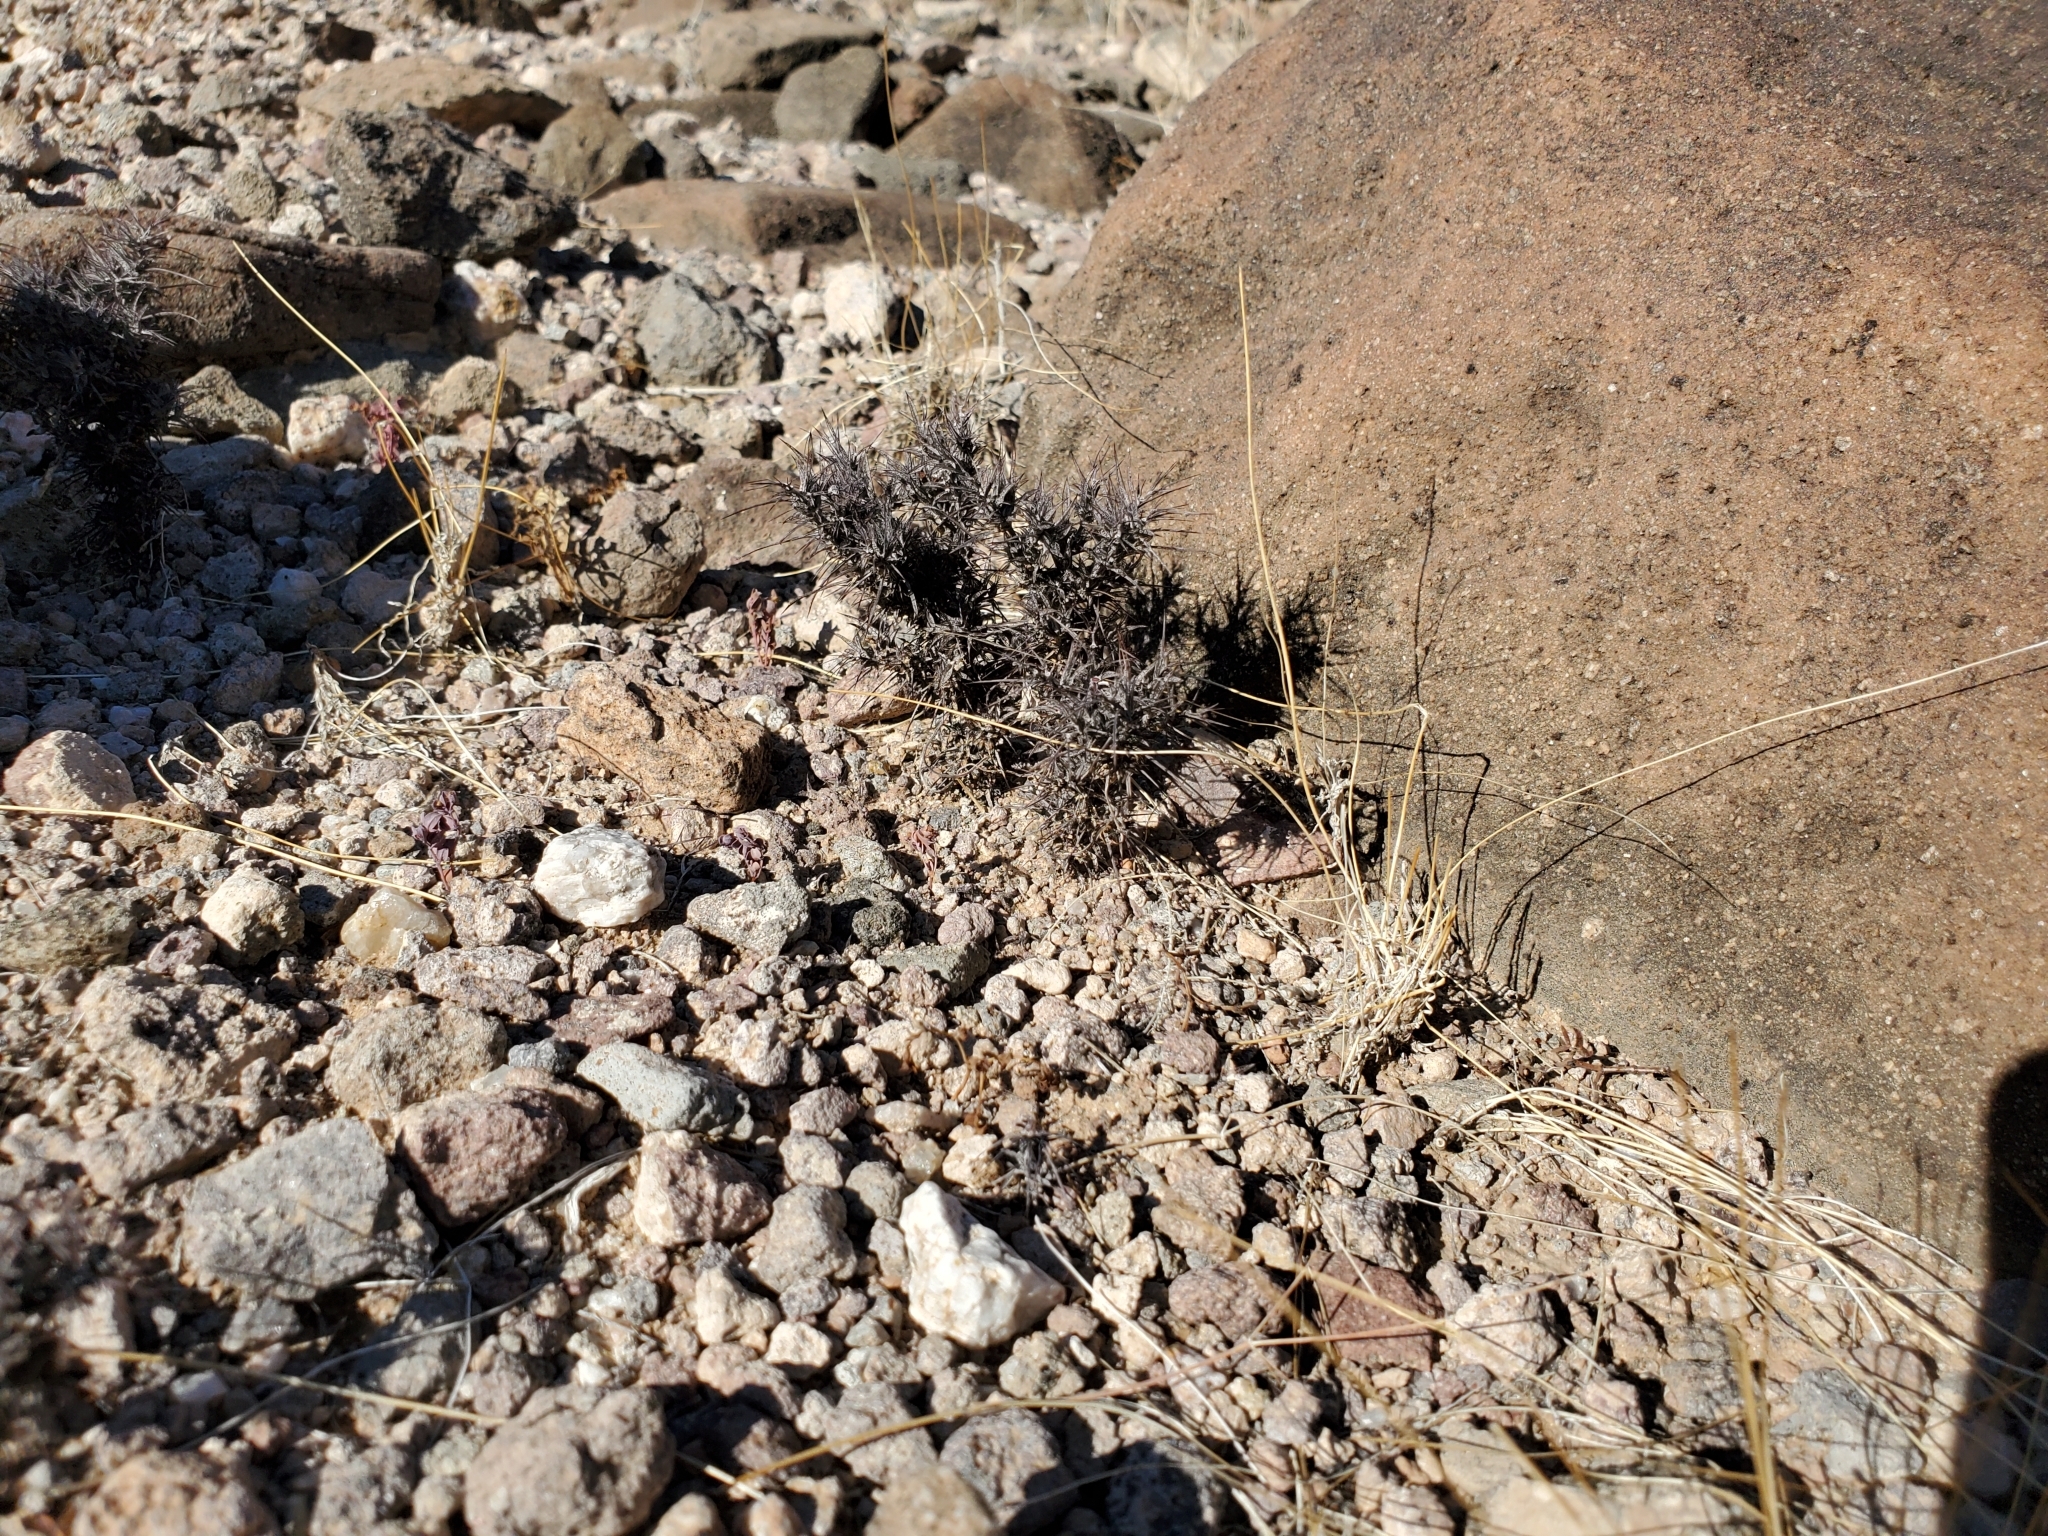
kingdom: Plantae
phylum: Tracheophyta
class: Magnoliopsida
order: Caryophyllales
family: Polygonaceae
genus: Chorizanthe
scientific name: Chorizanthe rigida
